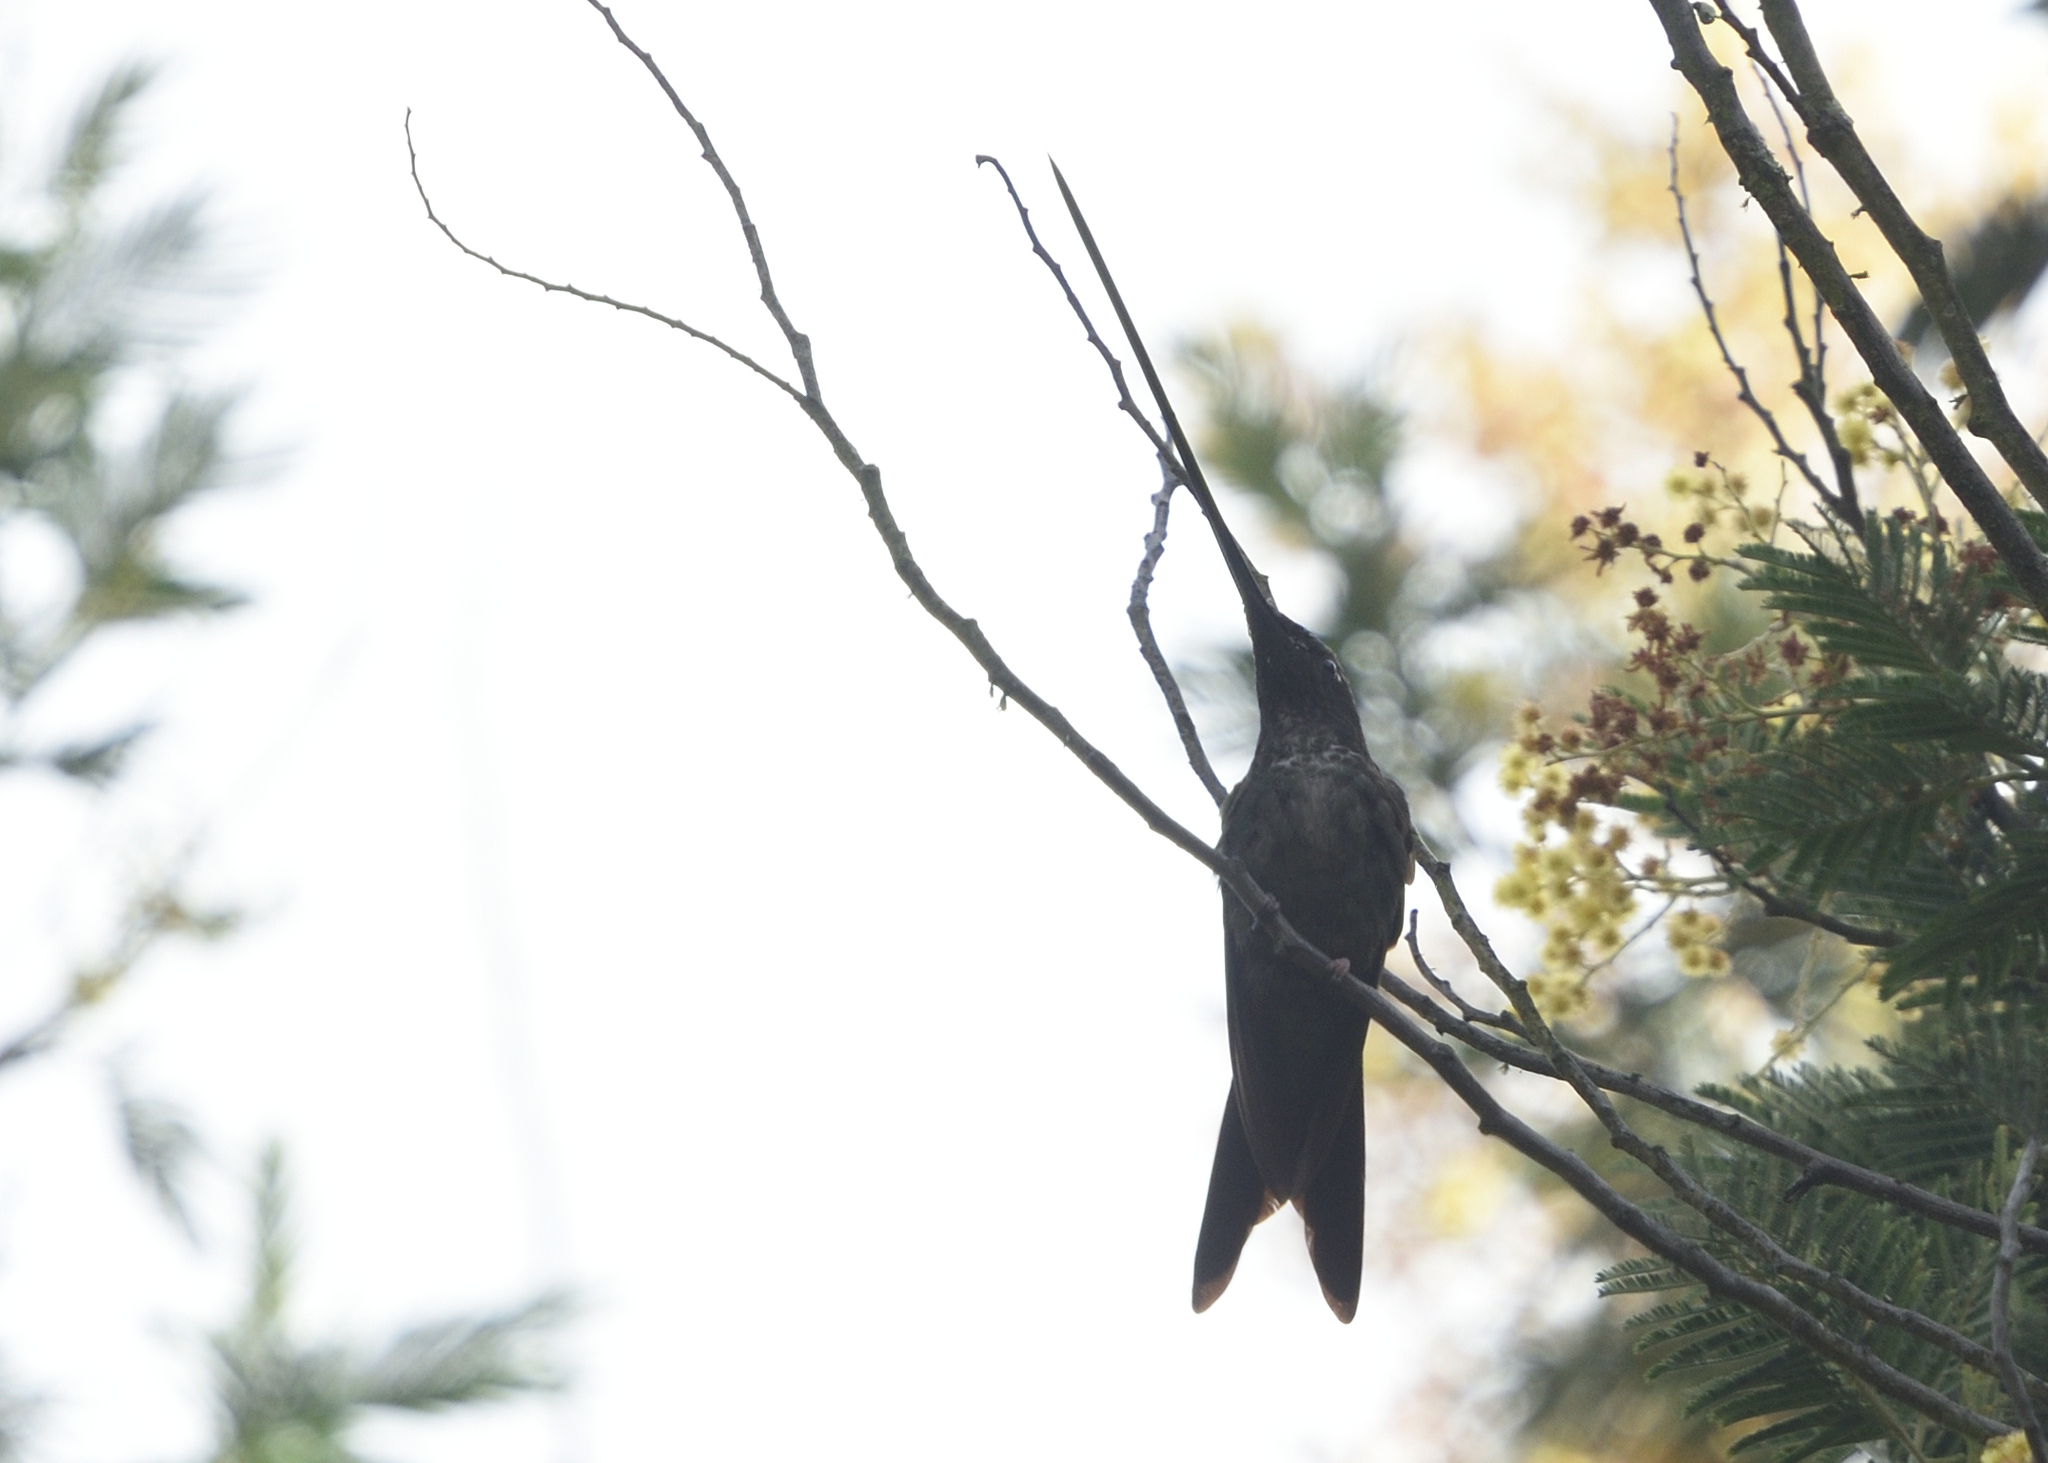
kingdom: Animalia
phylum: Chordata
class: Aves
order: Apodiformes
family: Trochilidae
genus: Ensifera
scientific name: Ensifera ensifera
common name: Sword-billed hummingbird
